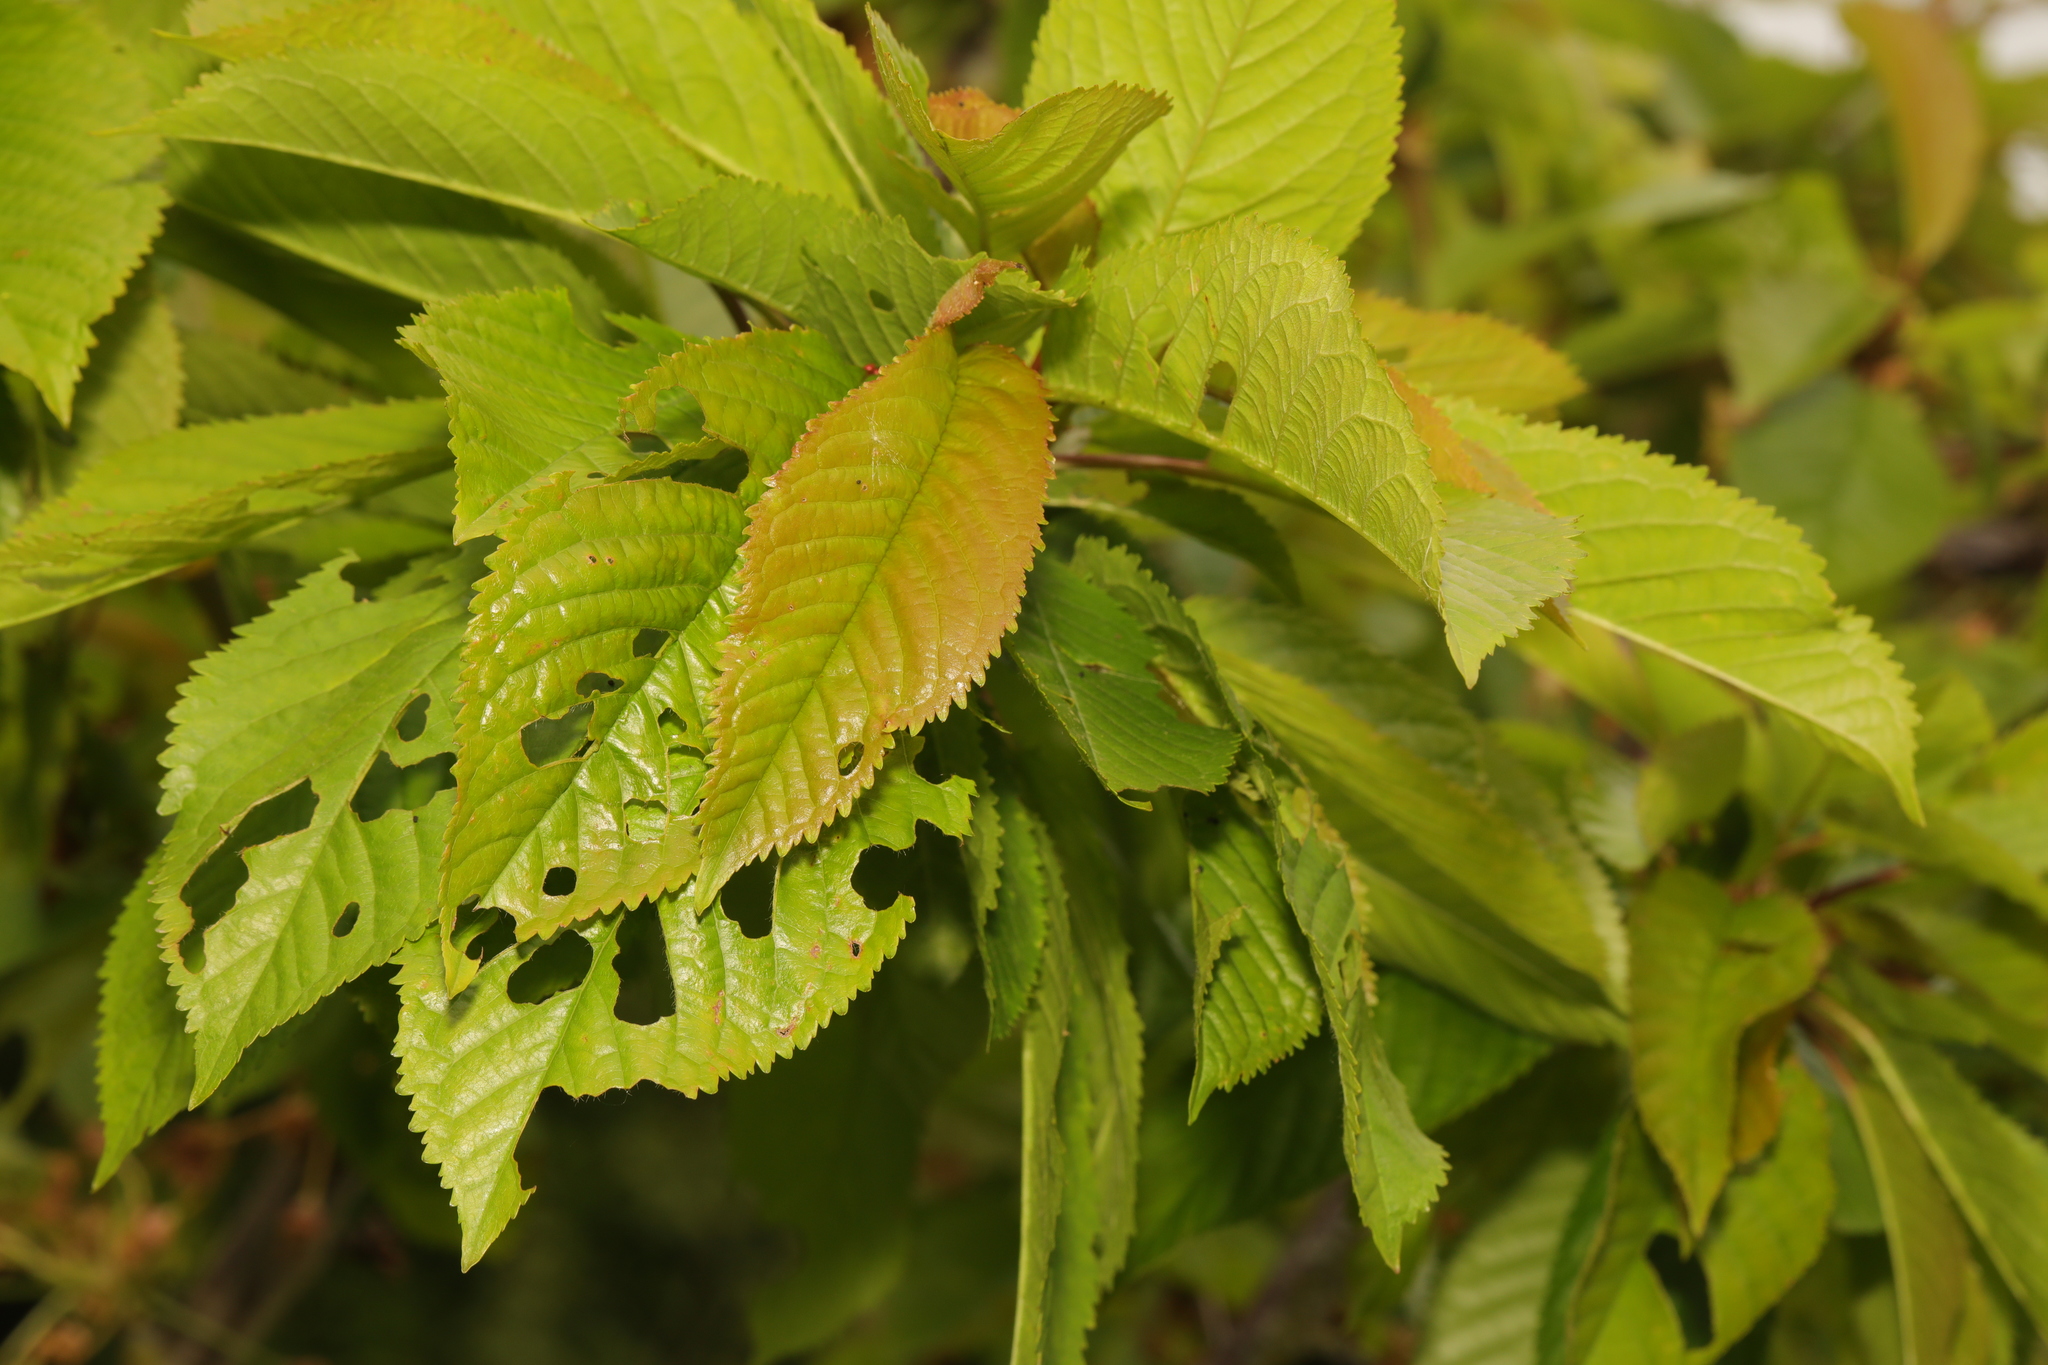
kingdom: Plantae
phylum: Tracheophyta
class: Magnoliopsida
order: Rosales
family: Rosaceae
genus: Prunus
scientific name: Prunus avium
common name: Sweet cherry
